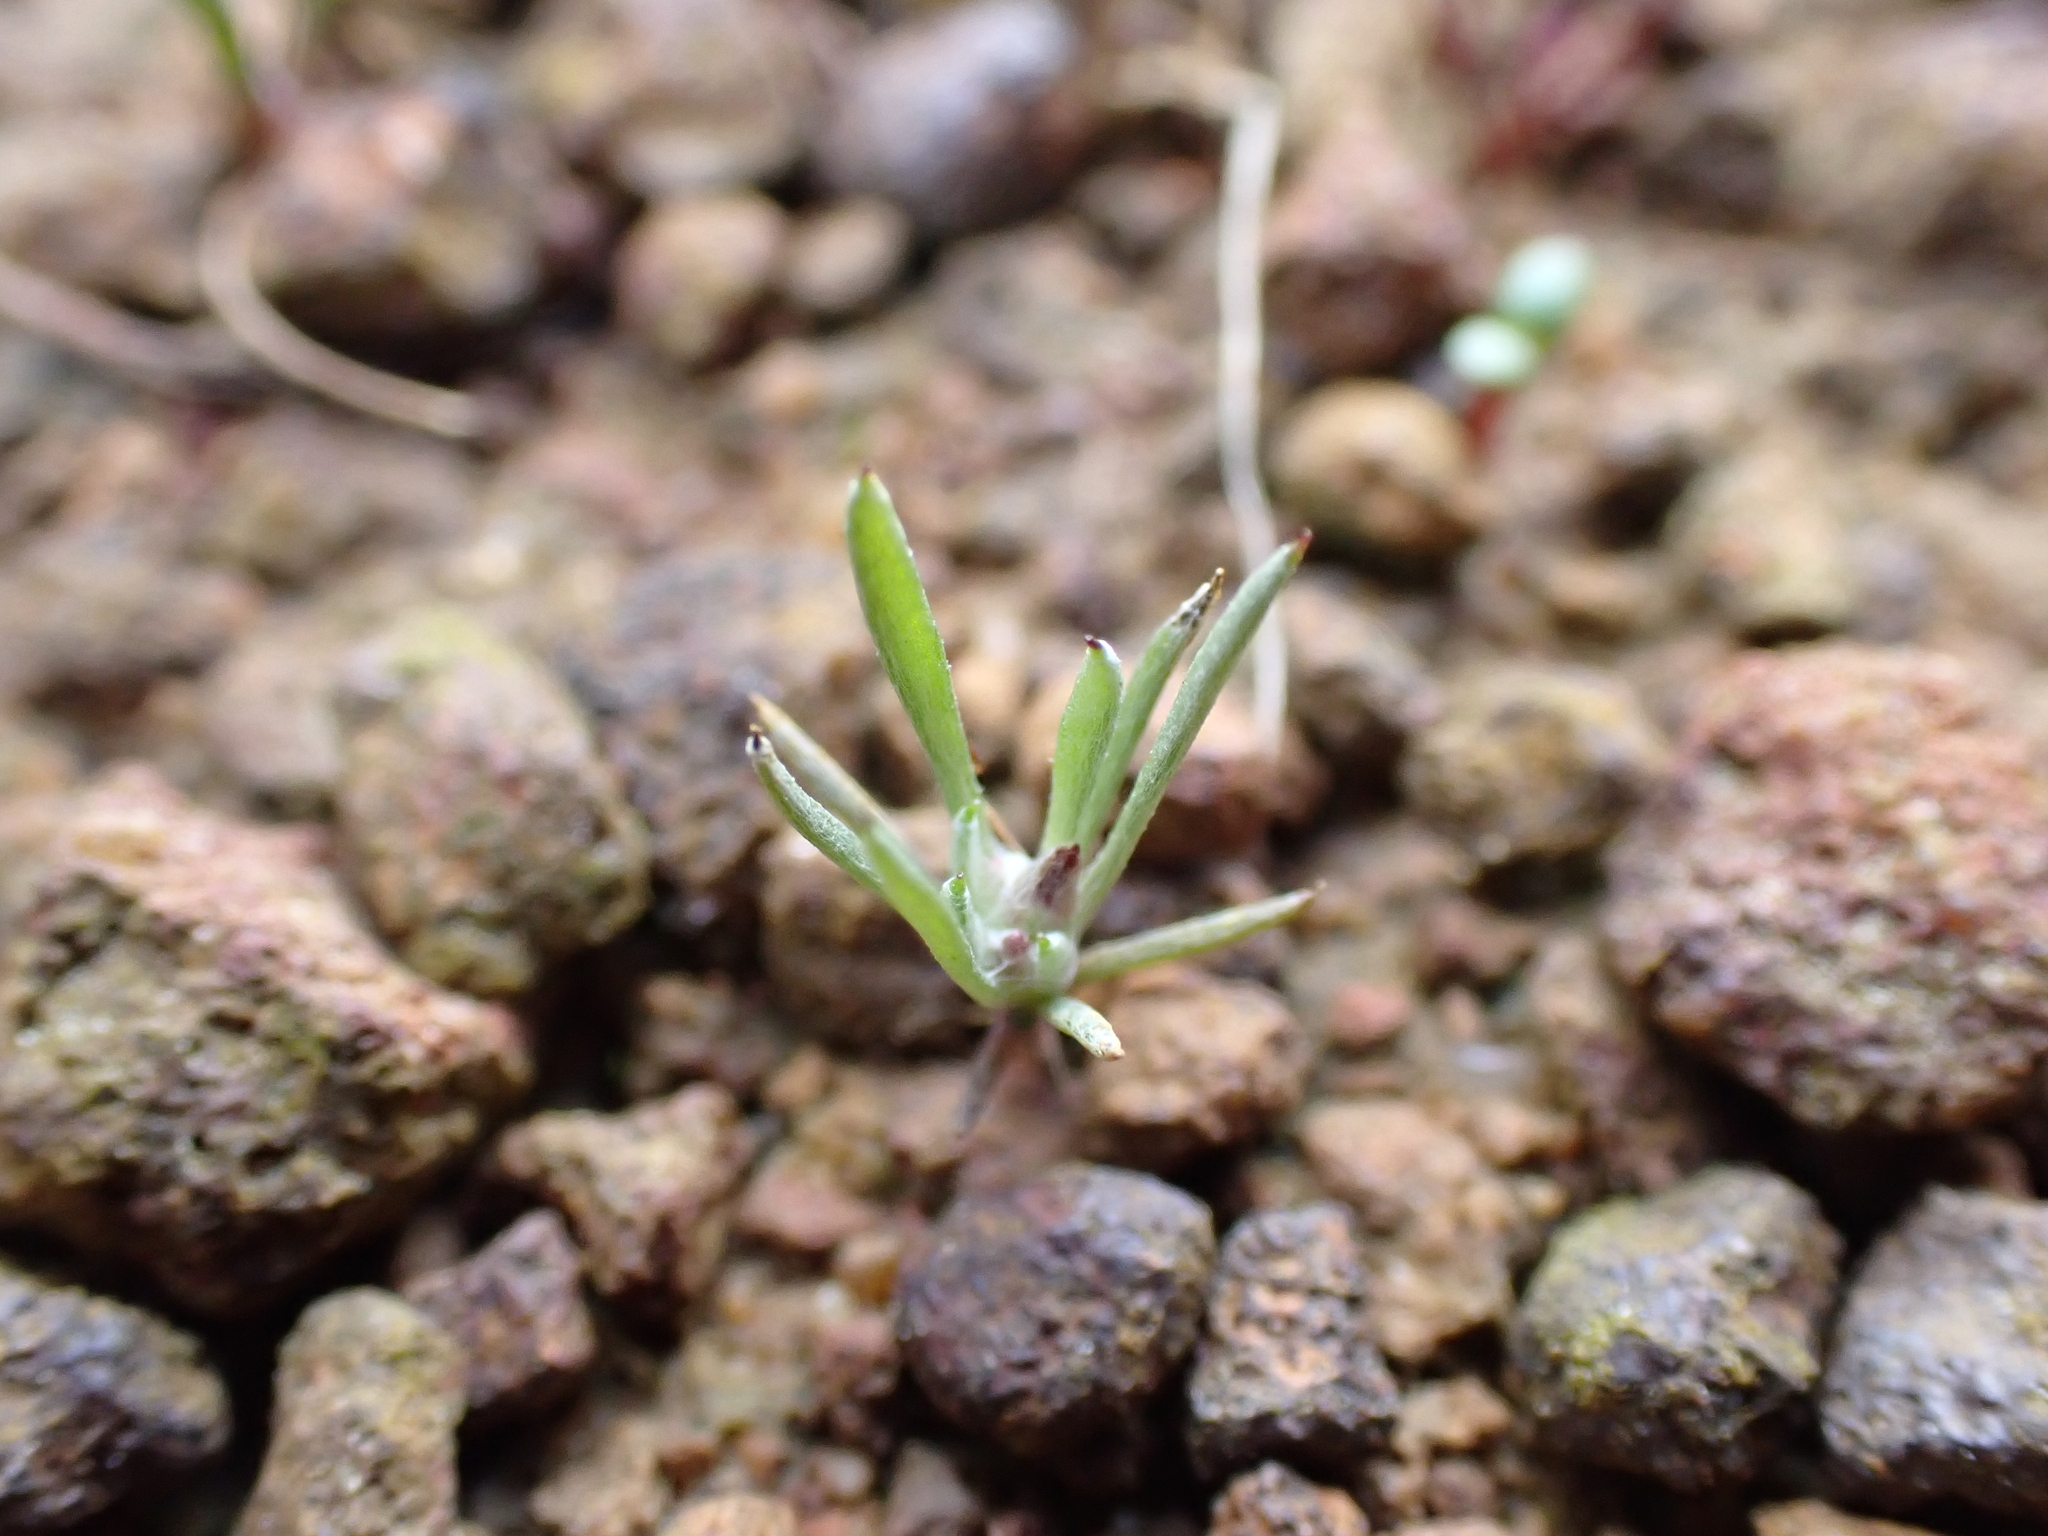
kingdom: Plantae
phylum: Tracheophyta
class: Magnoliopsida
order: Asterales
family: Asteraceae
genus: Gnaphalium
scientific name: Gnaphalium indutum
